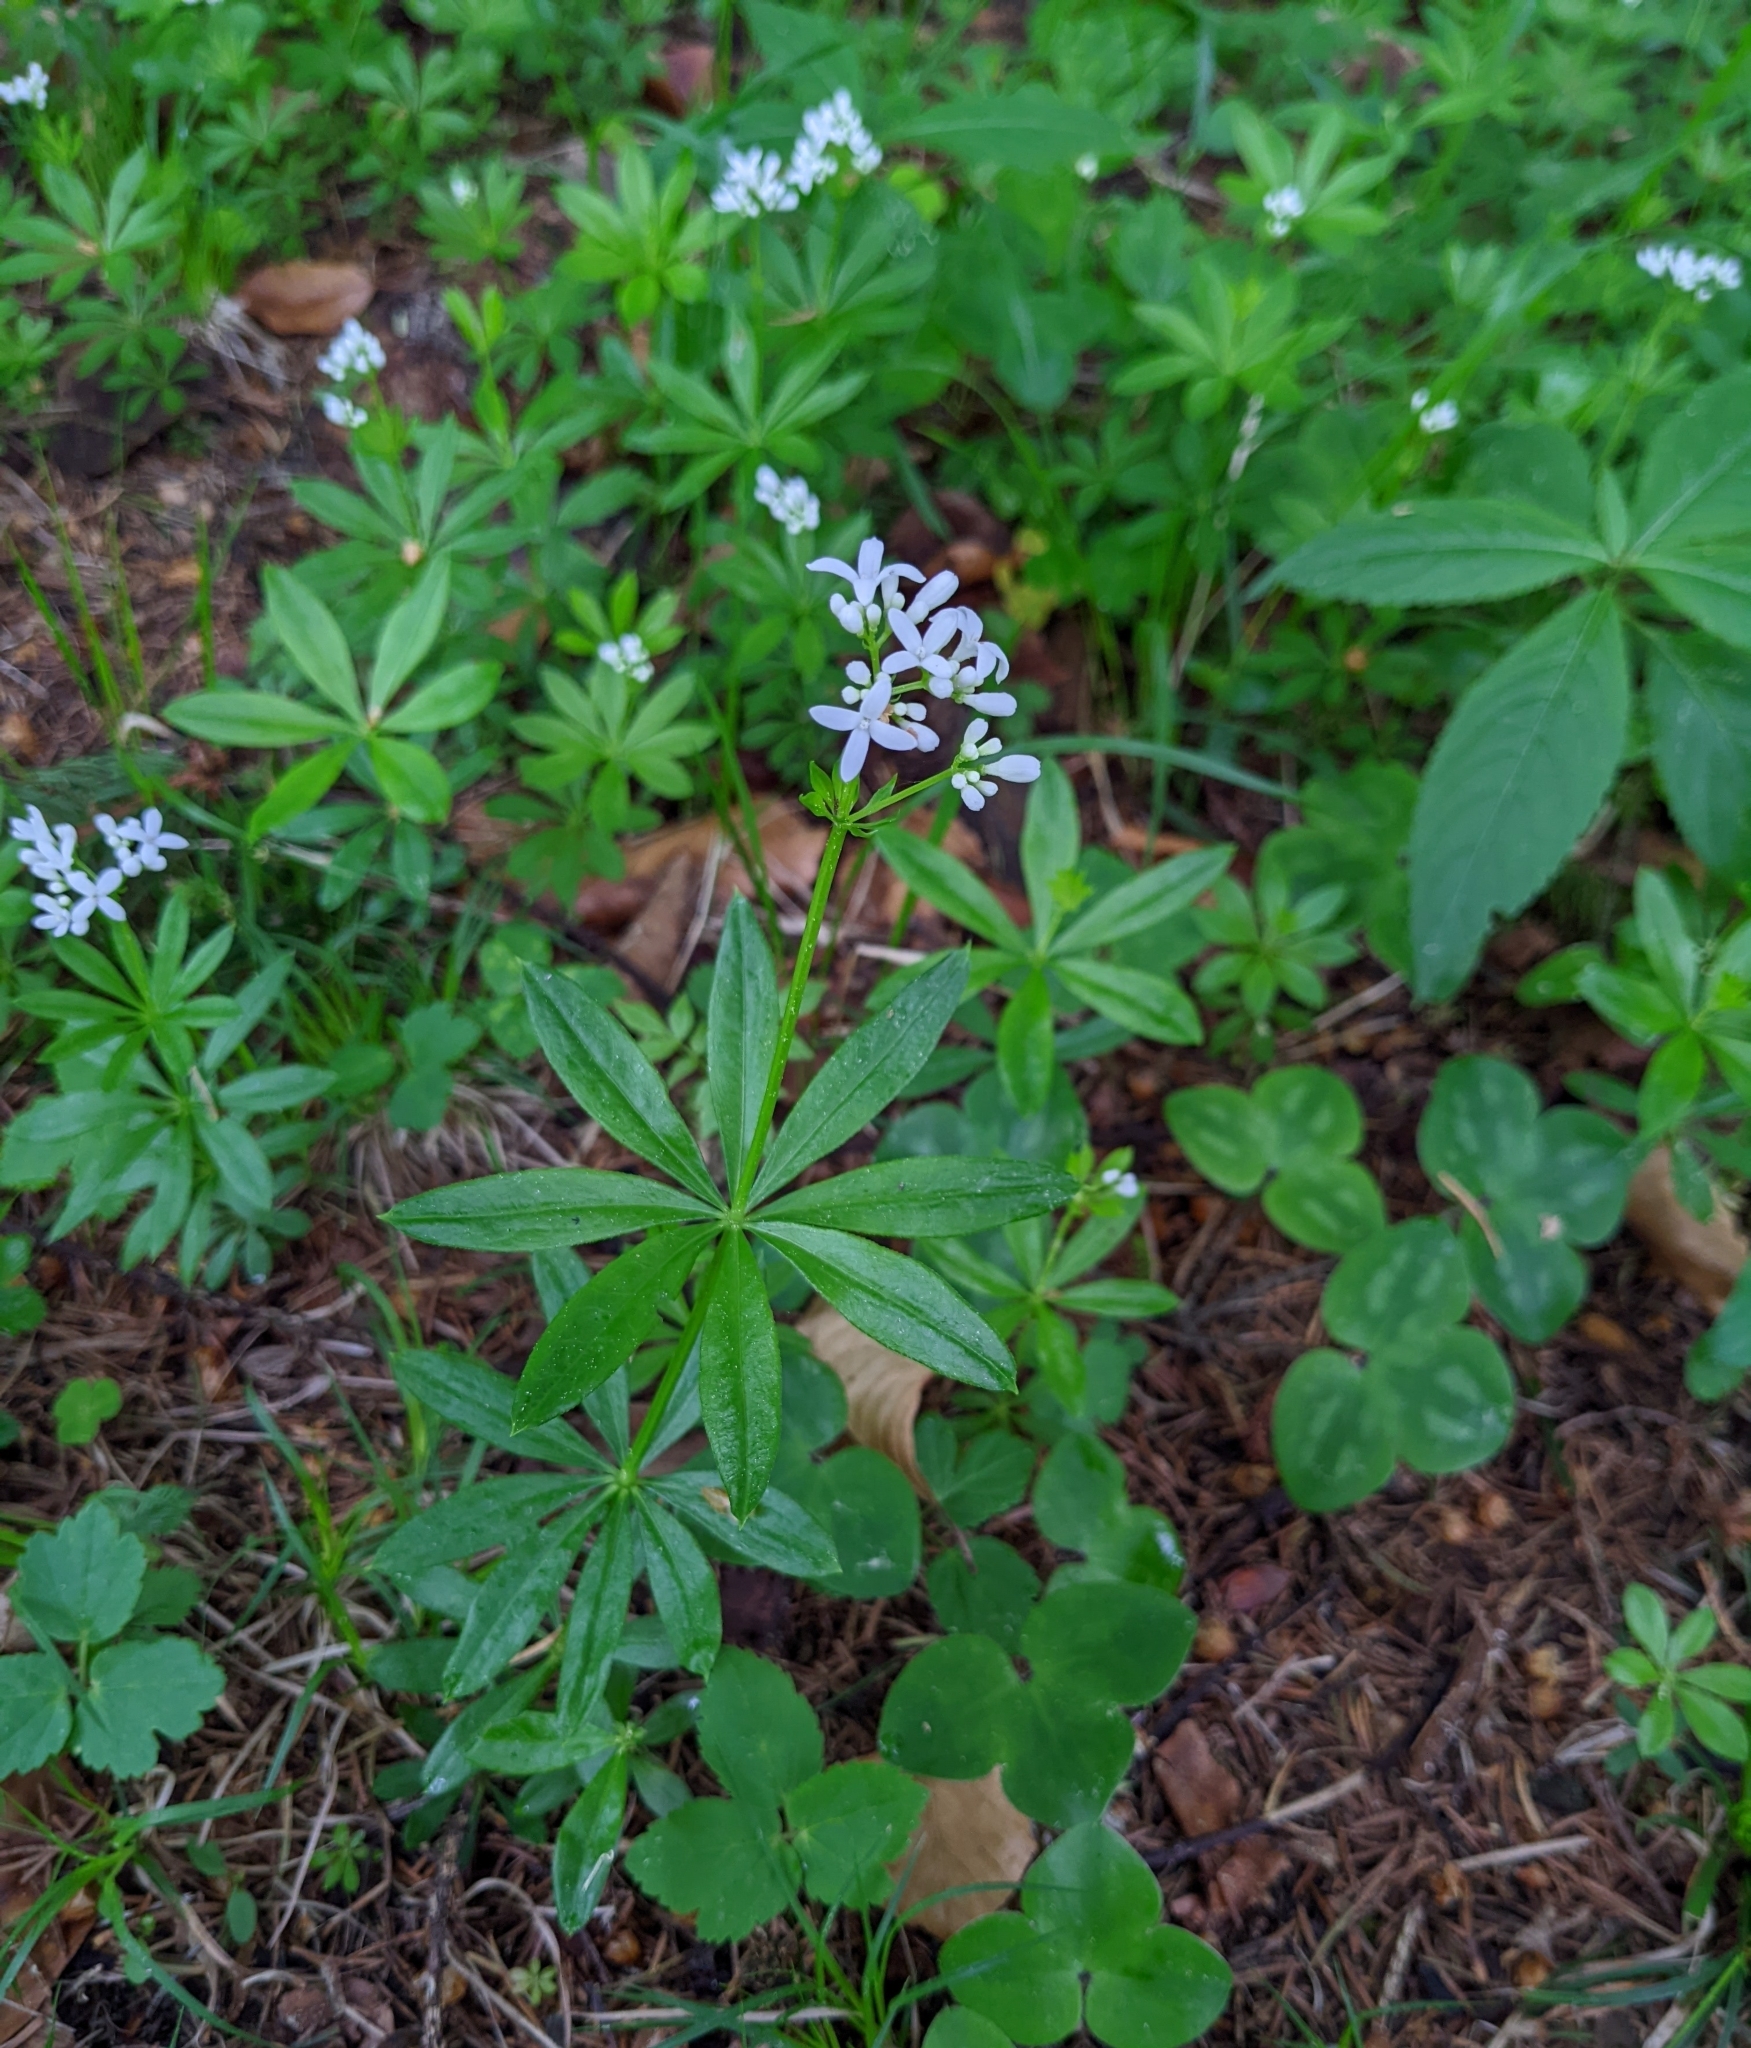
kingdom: Plantae
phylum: Tracheophyta
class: Magnoliopsida
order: Gentianales
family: Rubiaceae
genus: Galium
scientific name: Galium odoratum
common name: Sweet woodruff
